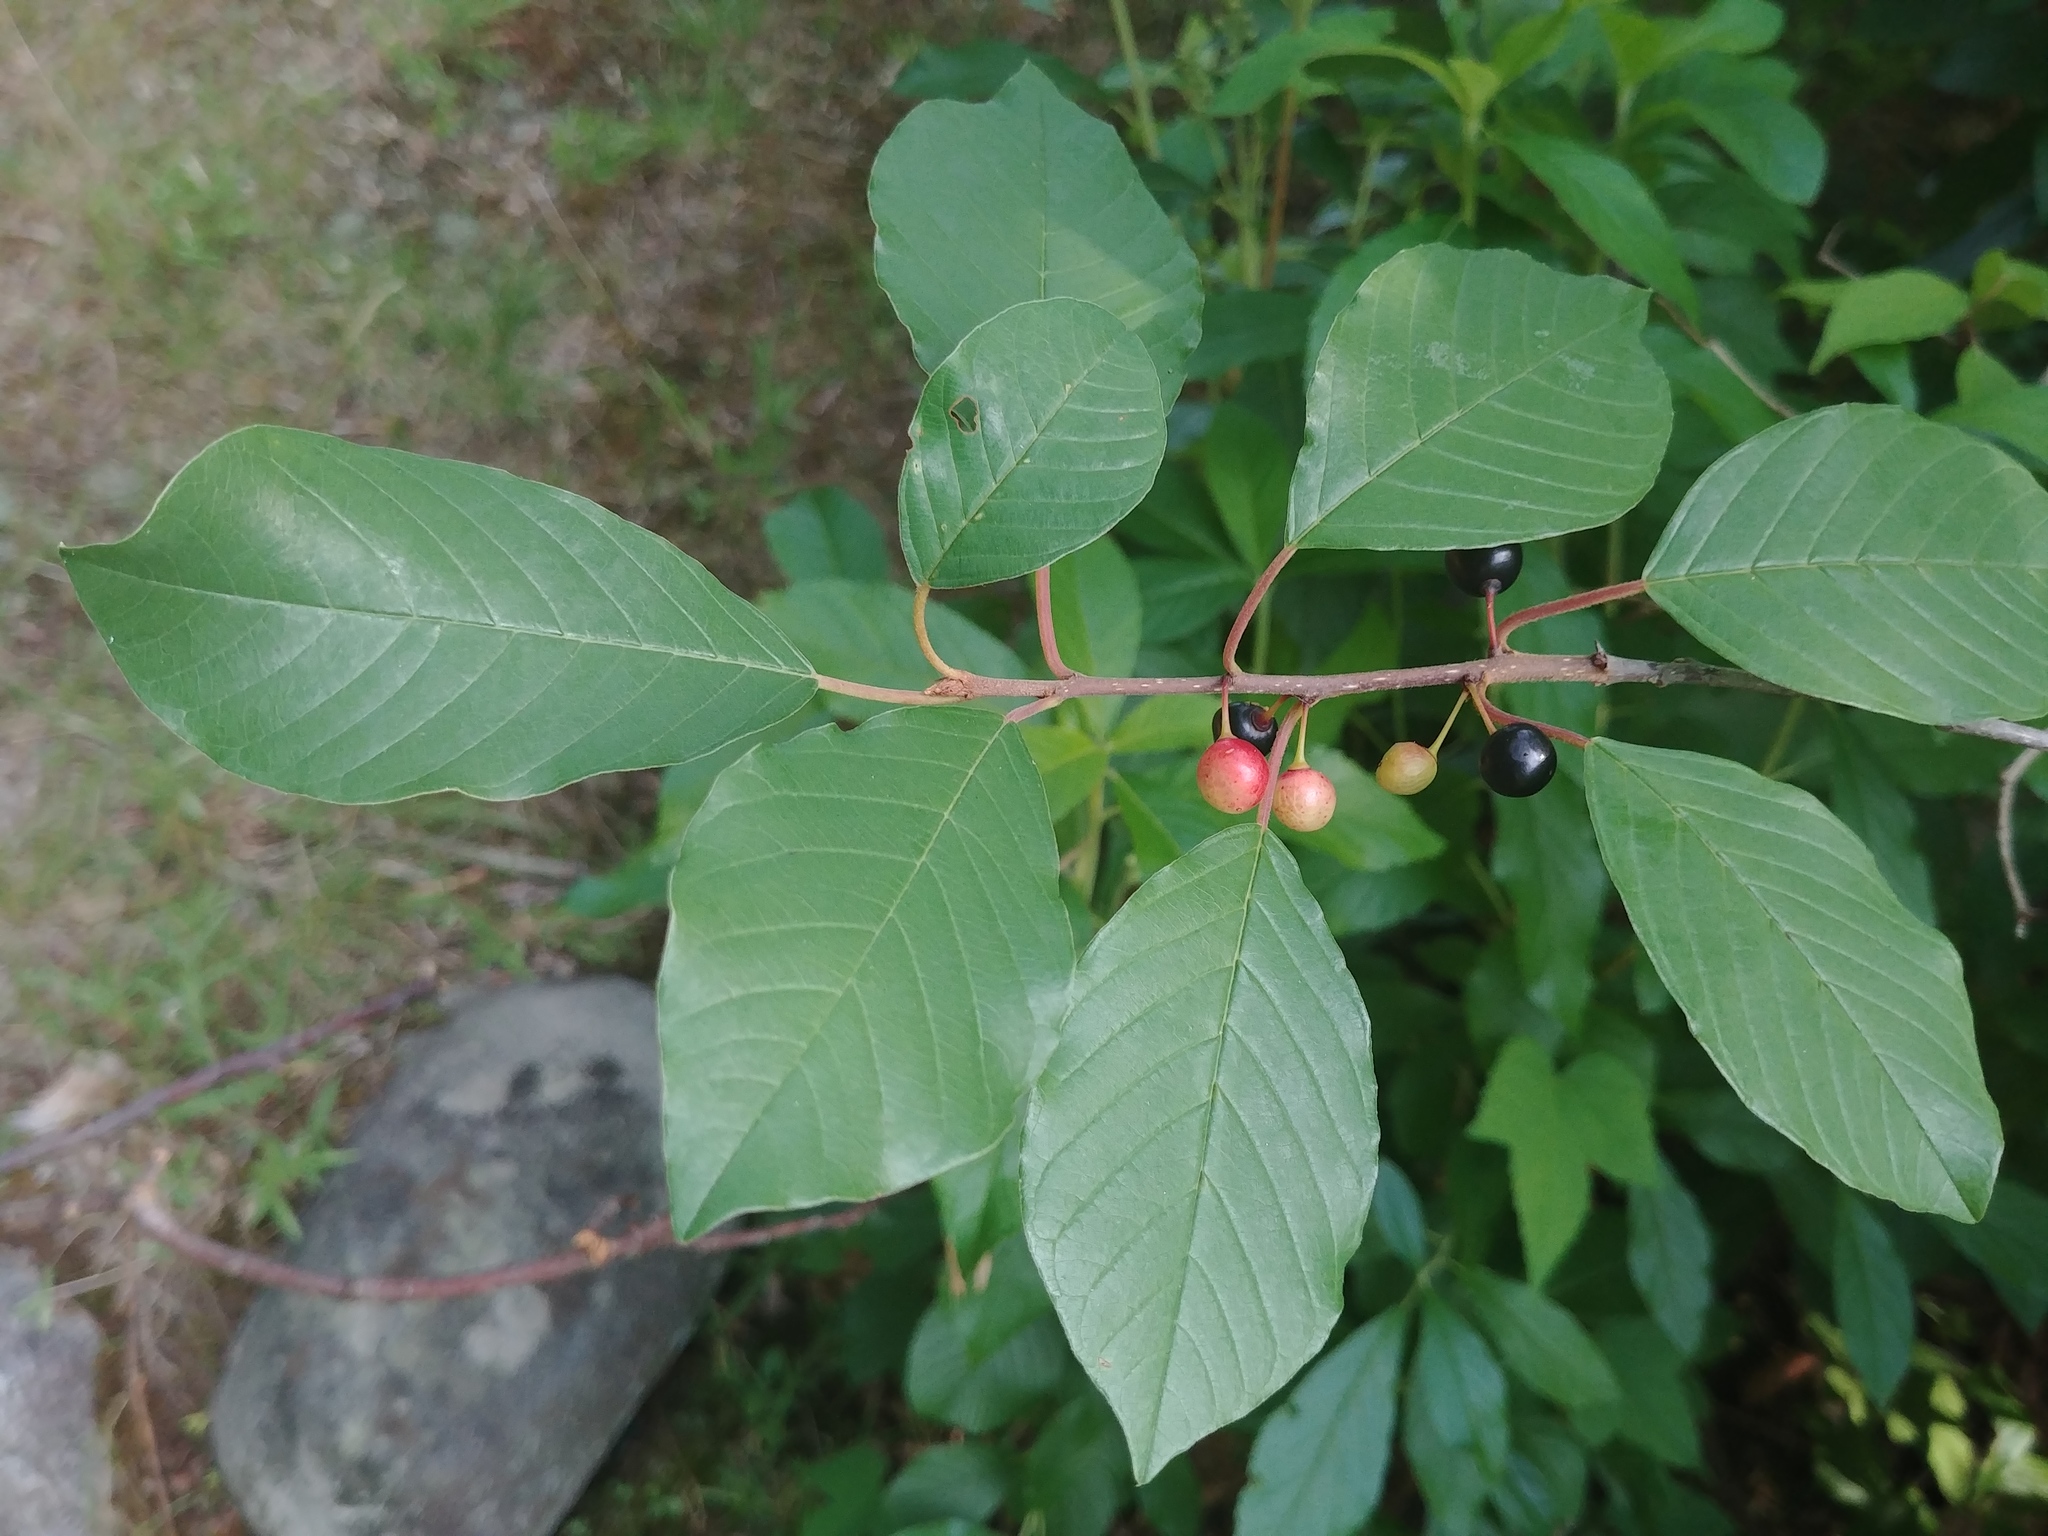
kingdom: Plantae
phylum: Tracheophyta
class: Magnoliopsida
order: Rosales
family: Rhamnaceae
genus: Frangula
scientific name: Frangula alnus
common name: Alder buckthorn
